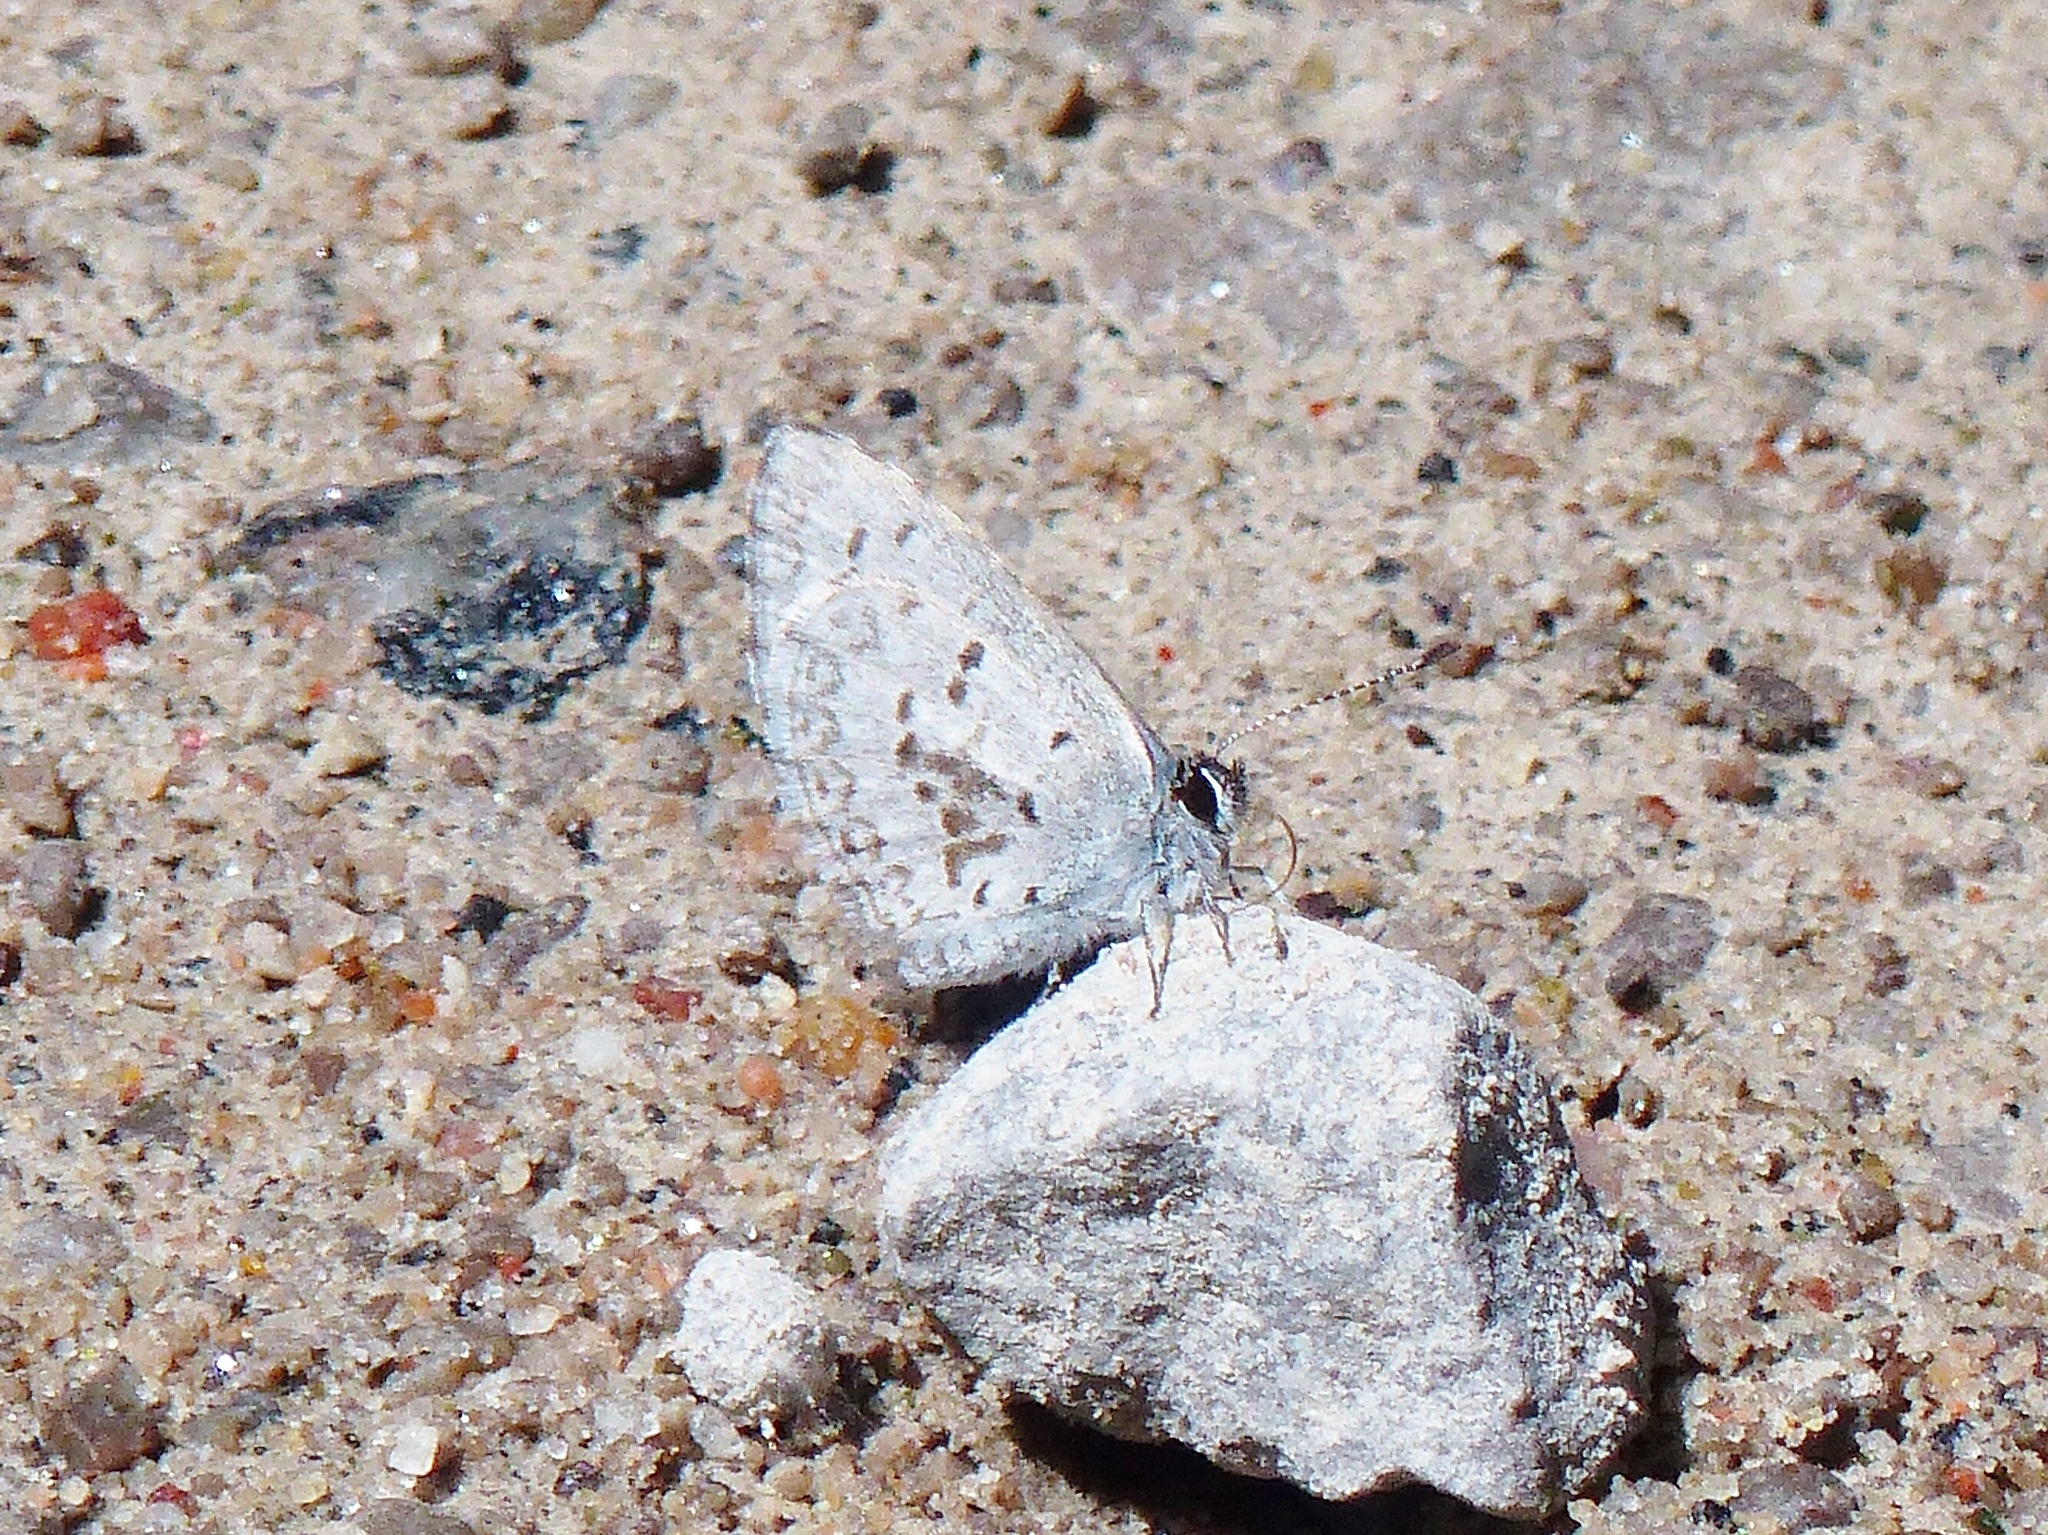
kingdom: Animalia
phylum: Arthropoda
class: Insecta
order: Lepidoptera
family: Lycaenidae
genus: Celastrina
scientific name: Celastrina lucia
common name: Lucia azure
